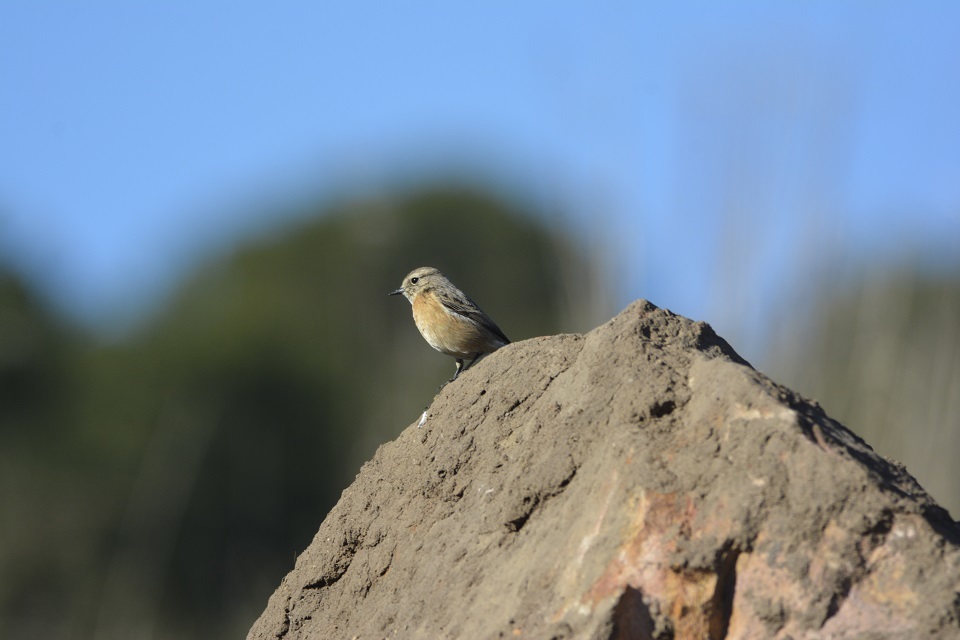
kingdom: Animalia
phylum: Chordata
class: Aves
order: Passeriformes
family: Muscicapidae
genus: Saxicola
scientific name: Saxicola rubicola
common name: European stonechat
